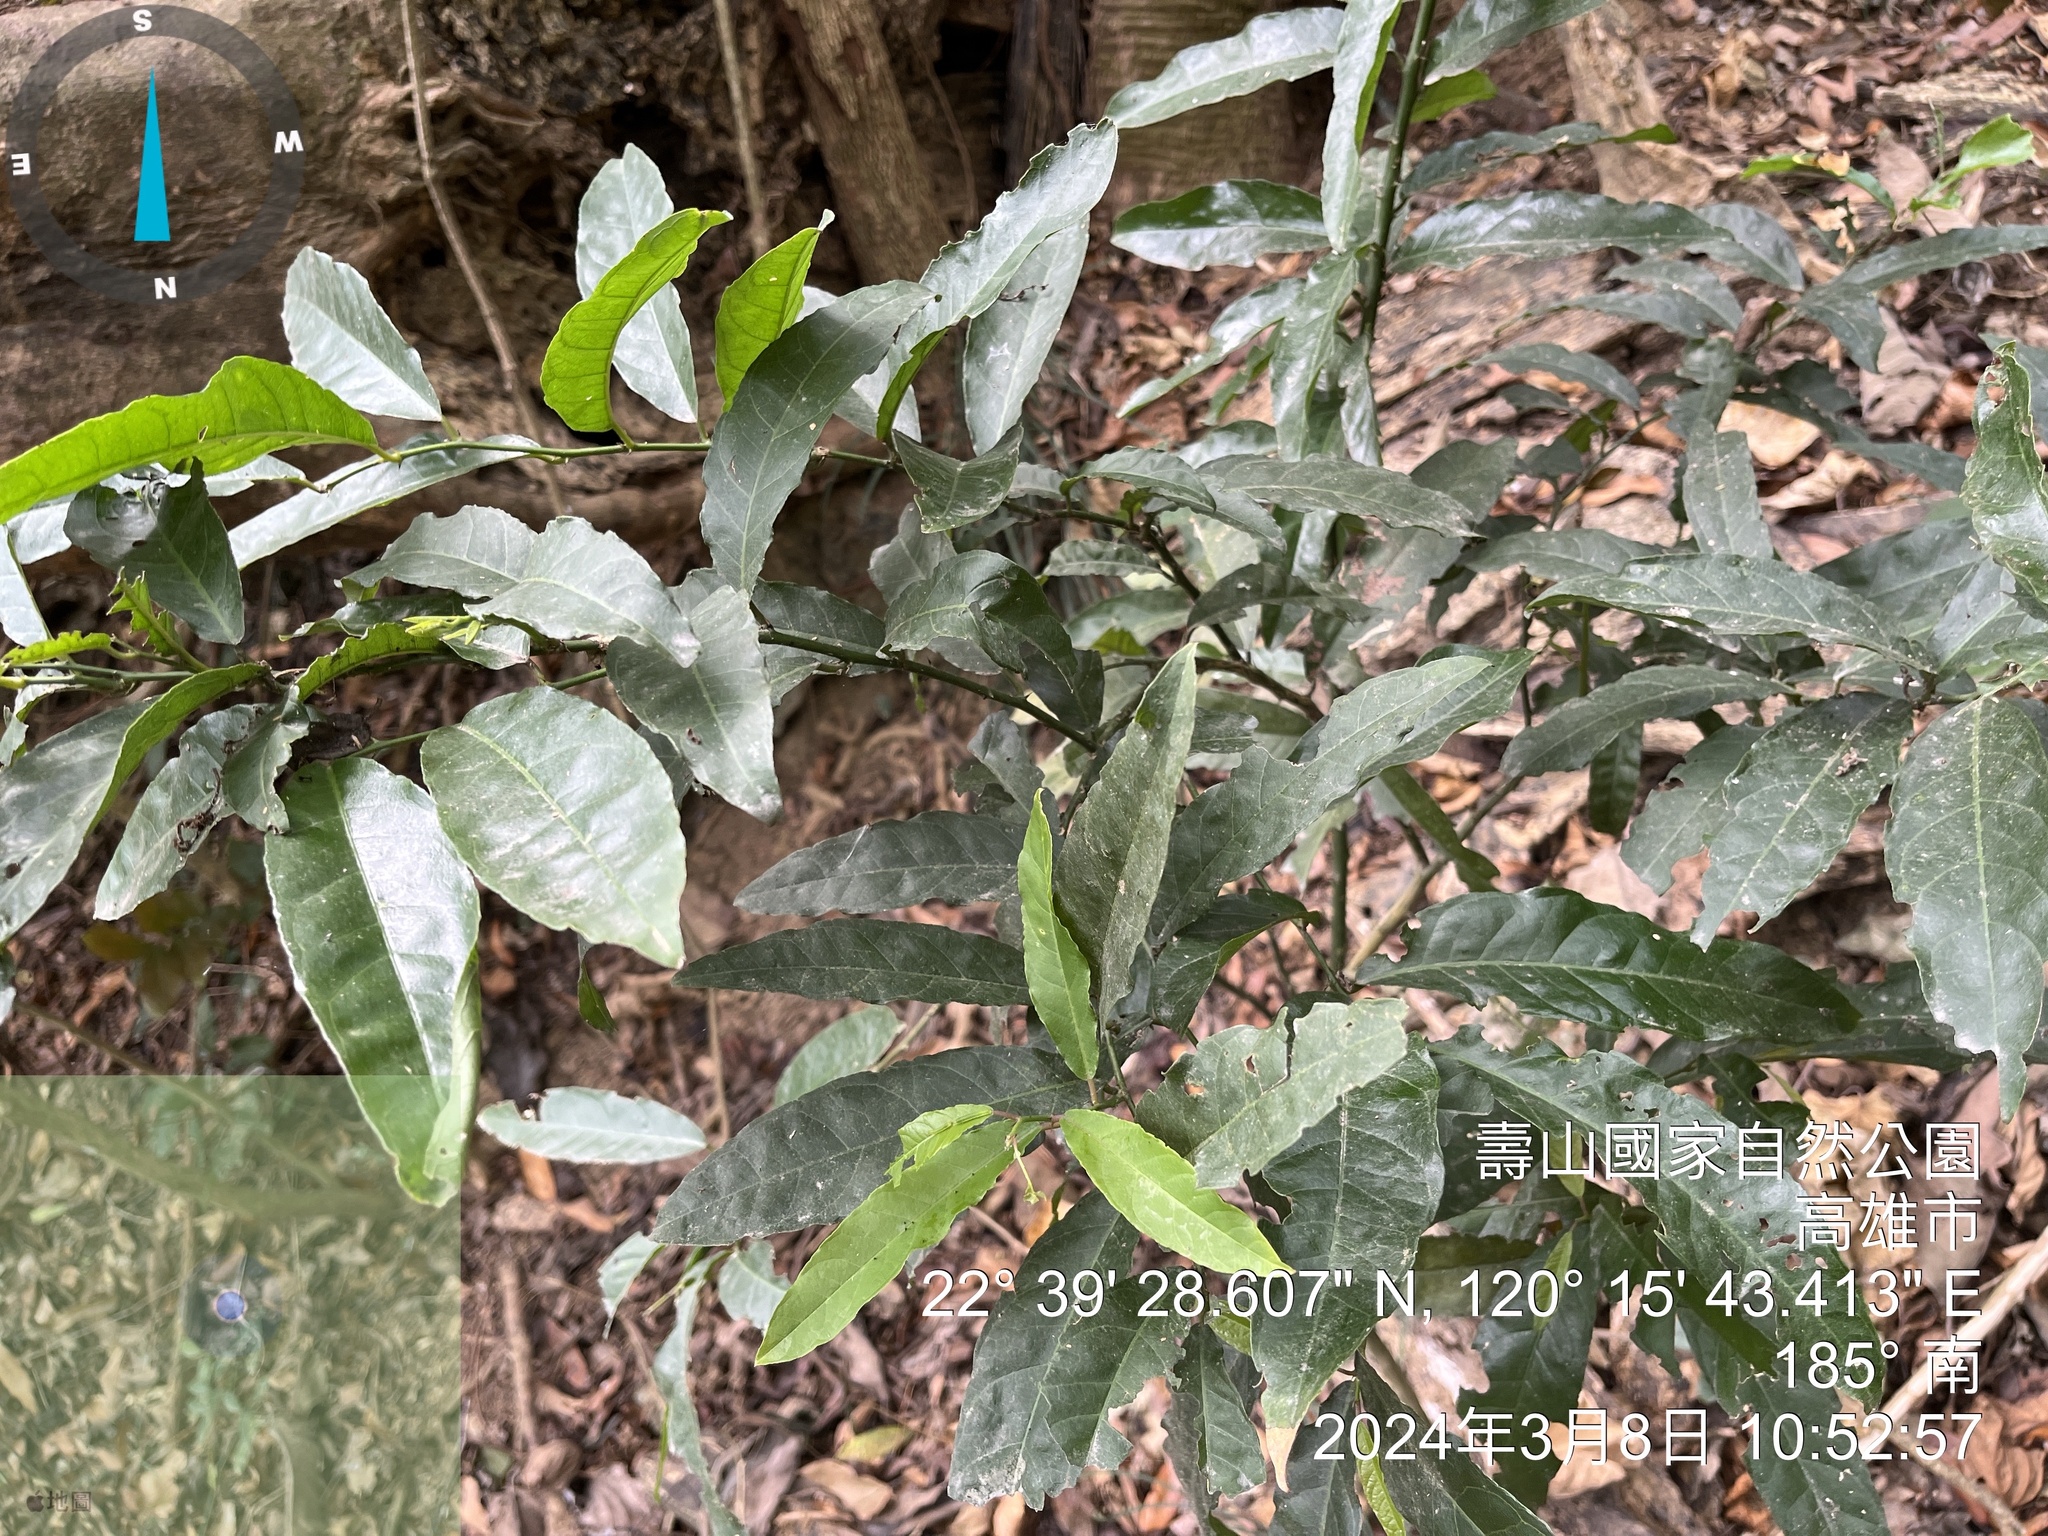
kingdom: Plantae
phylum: Tracheophyta
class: Magnoliopsida
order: Brassicales
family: Capparaceae
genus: Capparis
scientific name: Capparis micracantha
